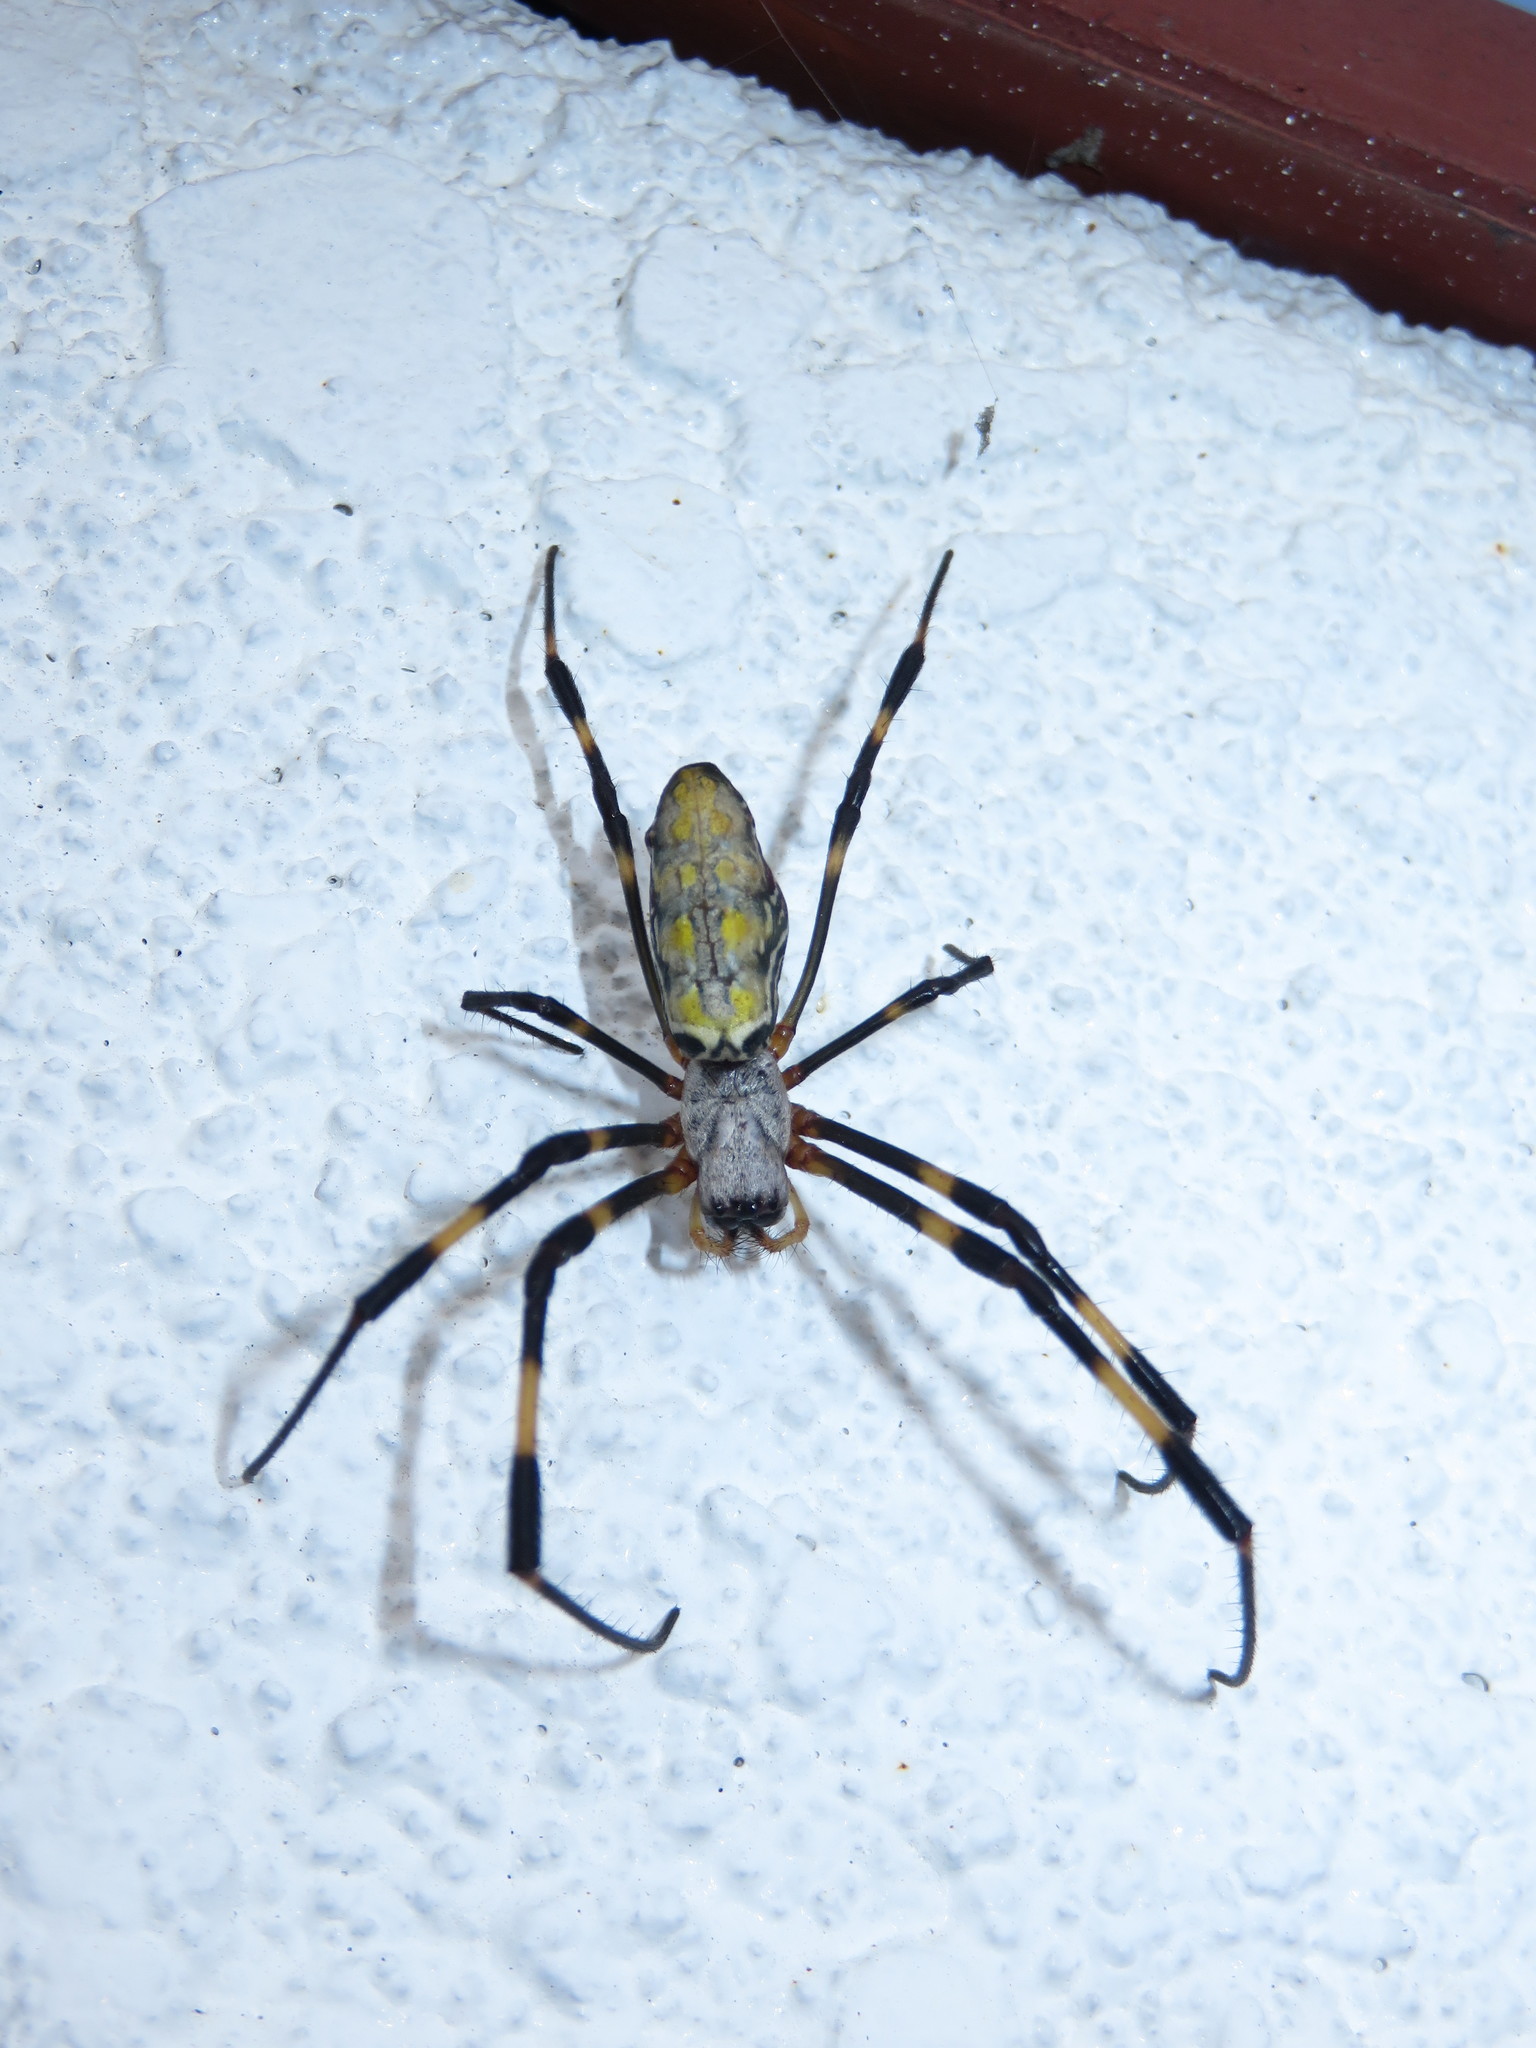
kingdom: Animalia
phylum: Arthropoda
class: Arachnida
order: Araneae
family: Araneidae
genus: Trichonephila
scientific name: Trichonephila clavata
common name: Jorō spider
